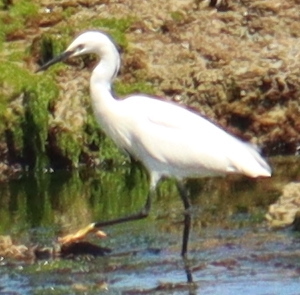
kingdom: Animalia
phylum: Chordata
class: Aves
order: Pelecaniformes
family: Ardeidae
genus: Egretta
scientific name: Egretta garzetta
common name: Little egret
